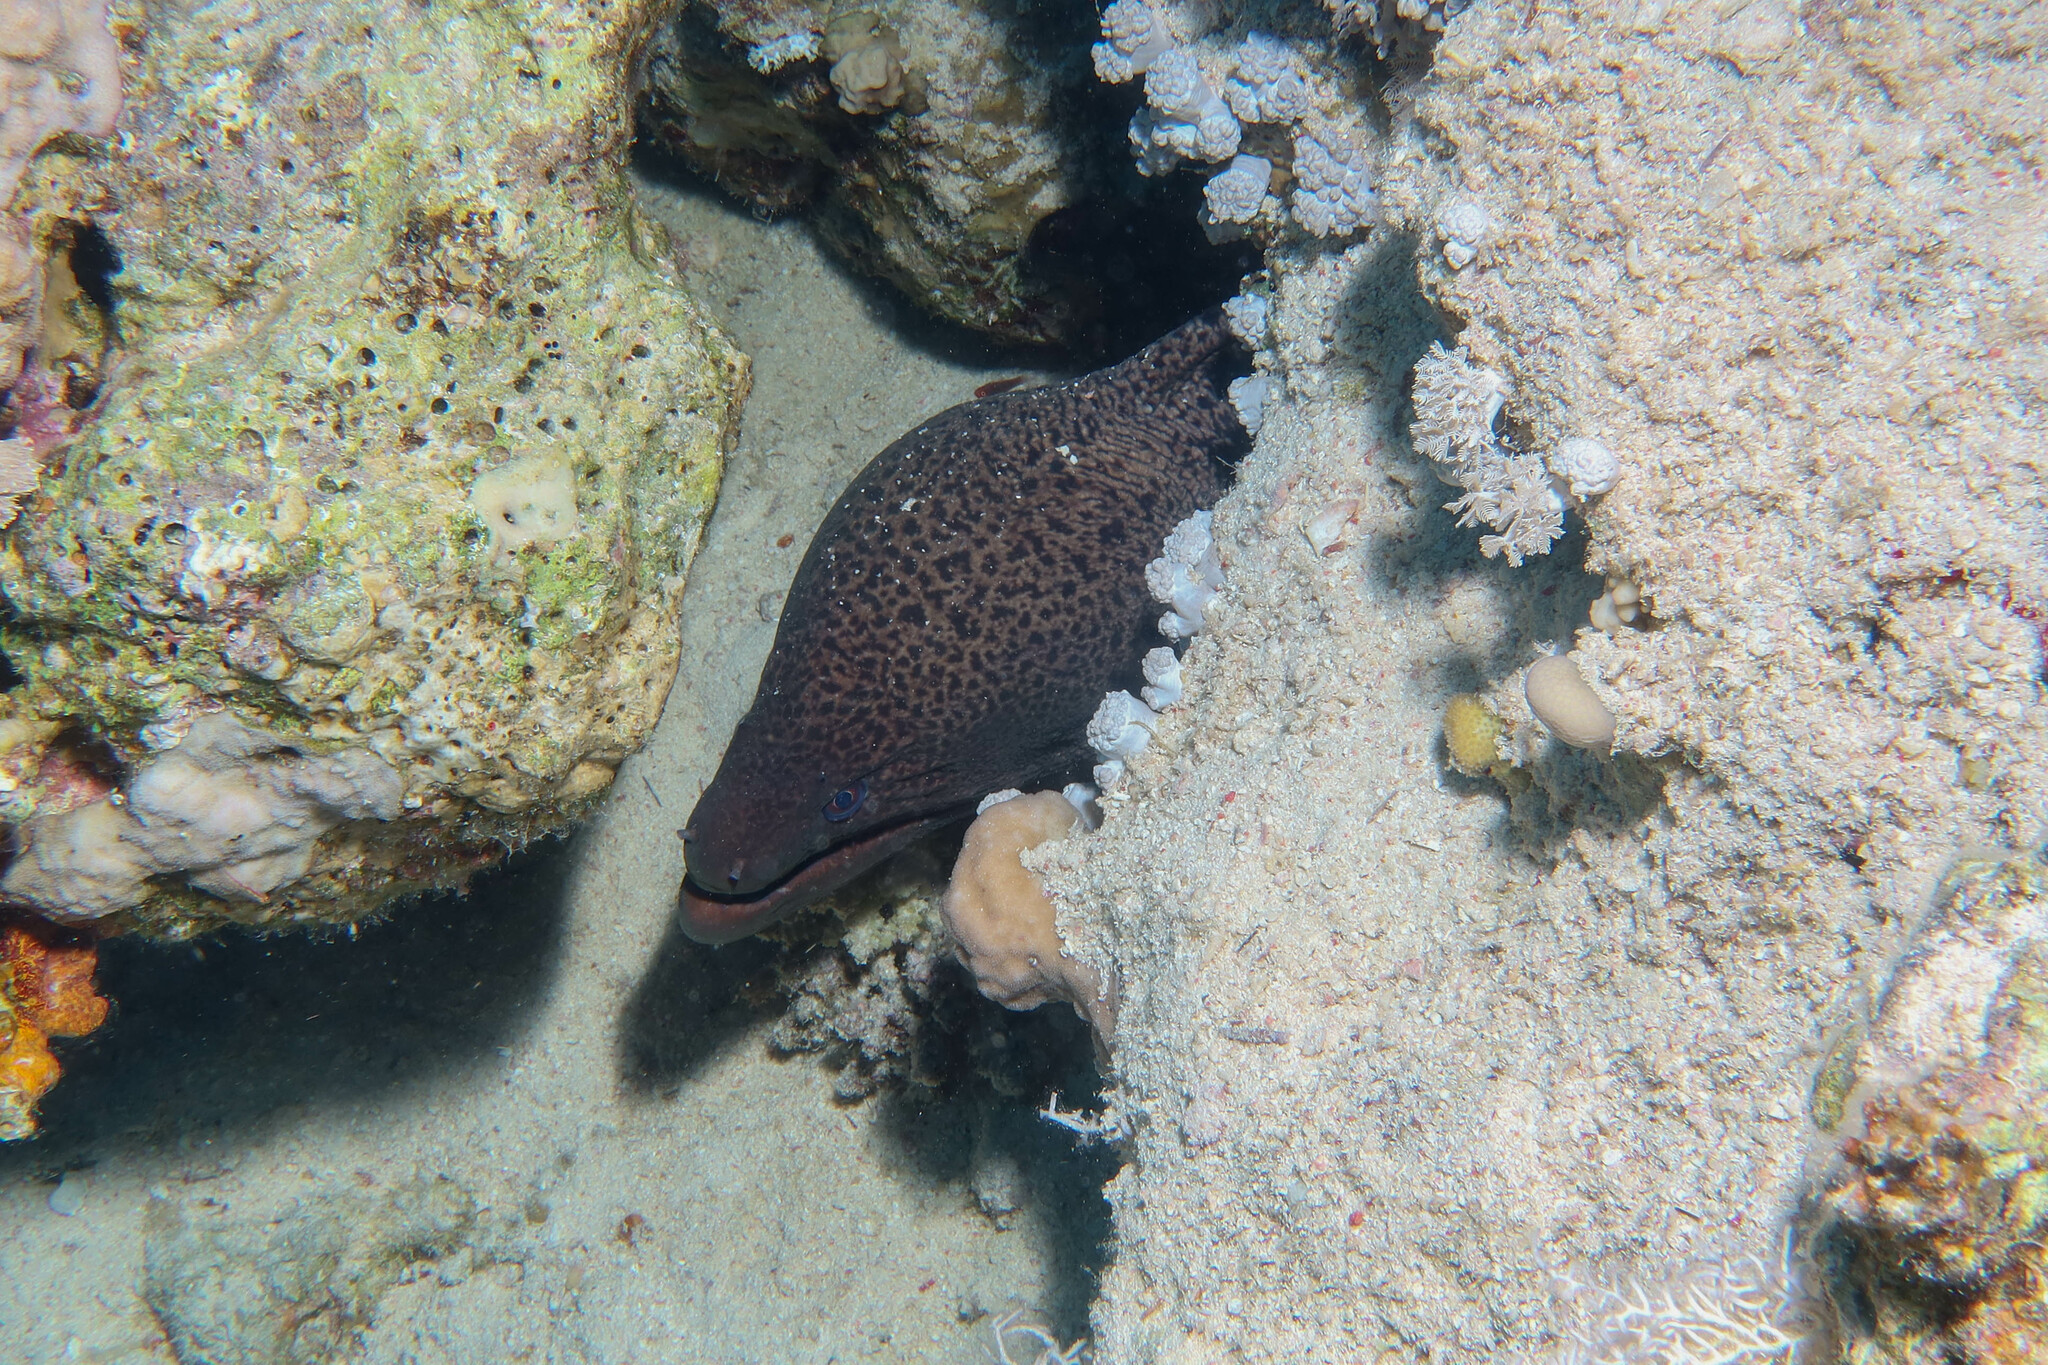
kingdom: Animalia
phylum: Chordata
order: Anguilliformes
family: Muraenidae
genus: Gymnothorax
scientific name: Gymnothorax javanicus
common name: Giant moray
